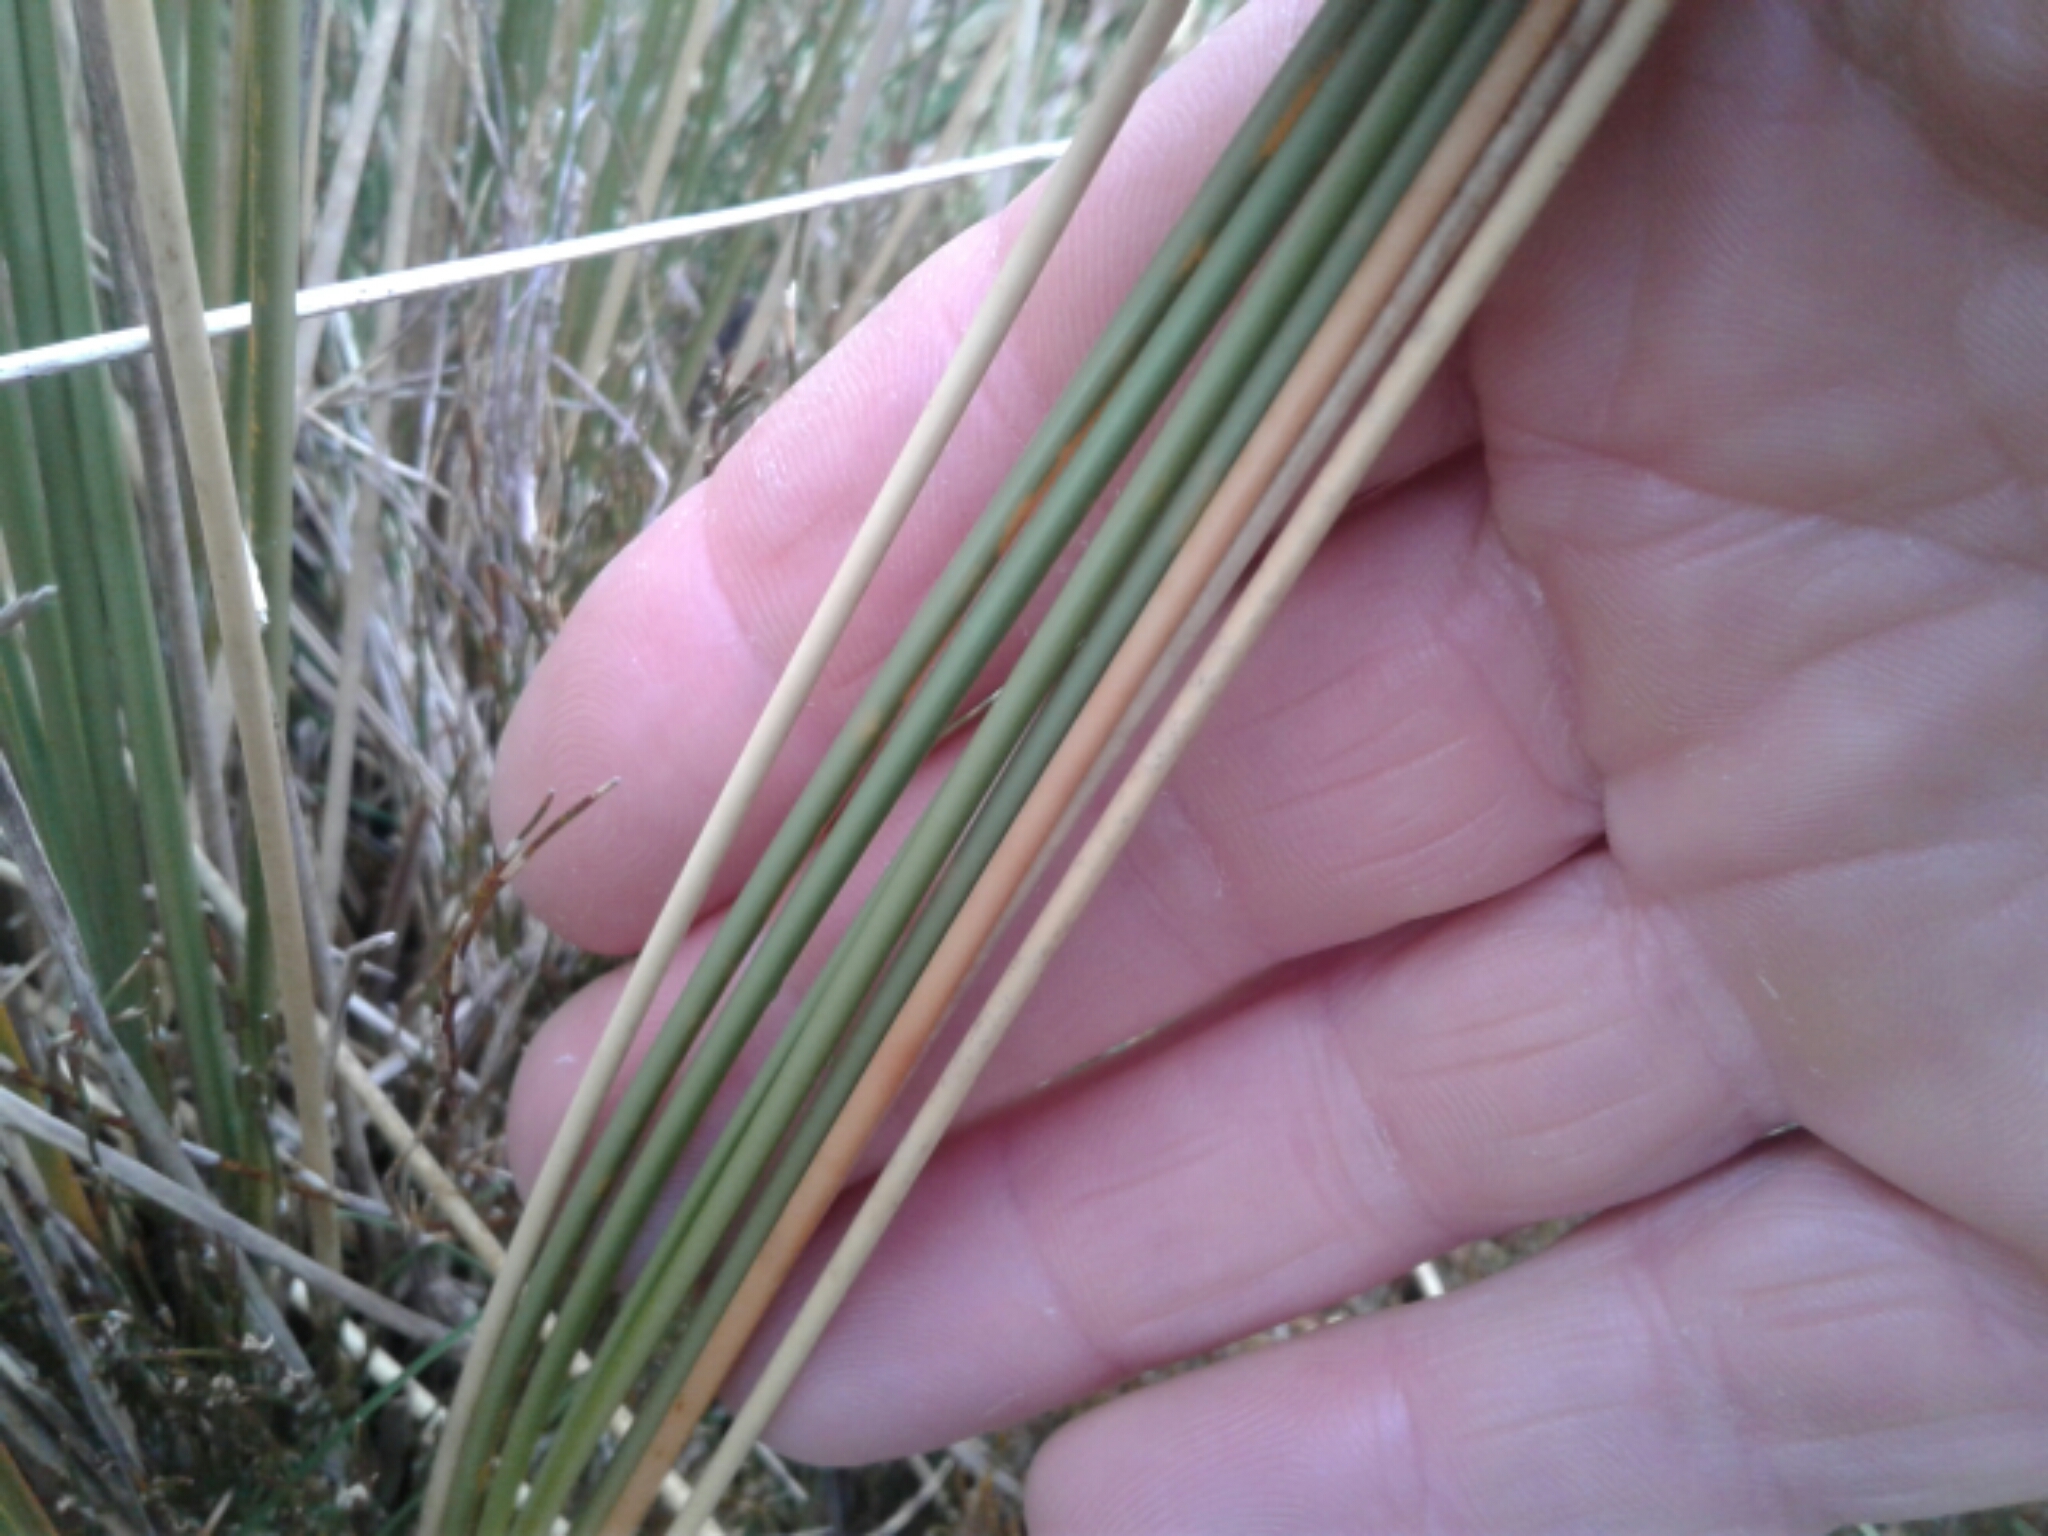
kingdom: Plantae
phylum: Tracheophyta
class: Liliopsida
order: Poales
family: Poaceae
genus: Chionochloa
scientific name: Chionochloa
